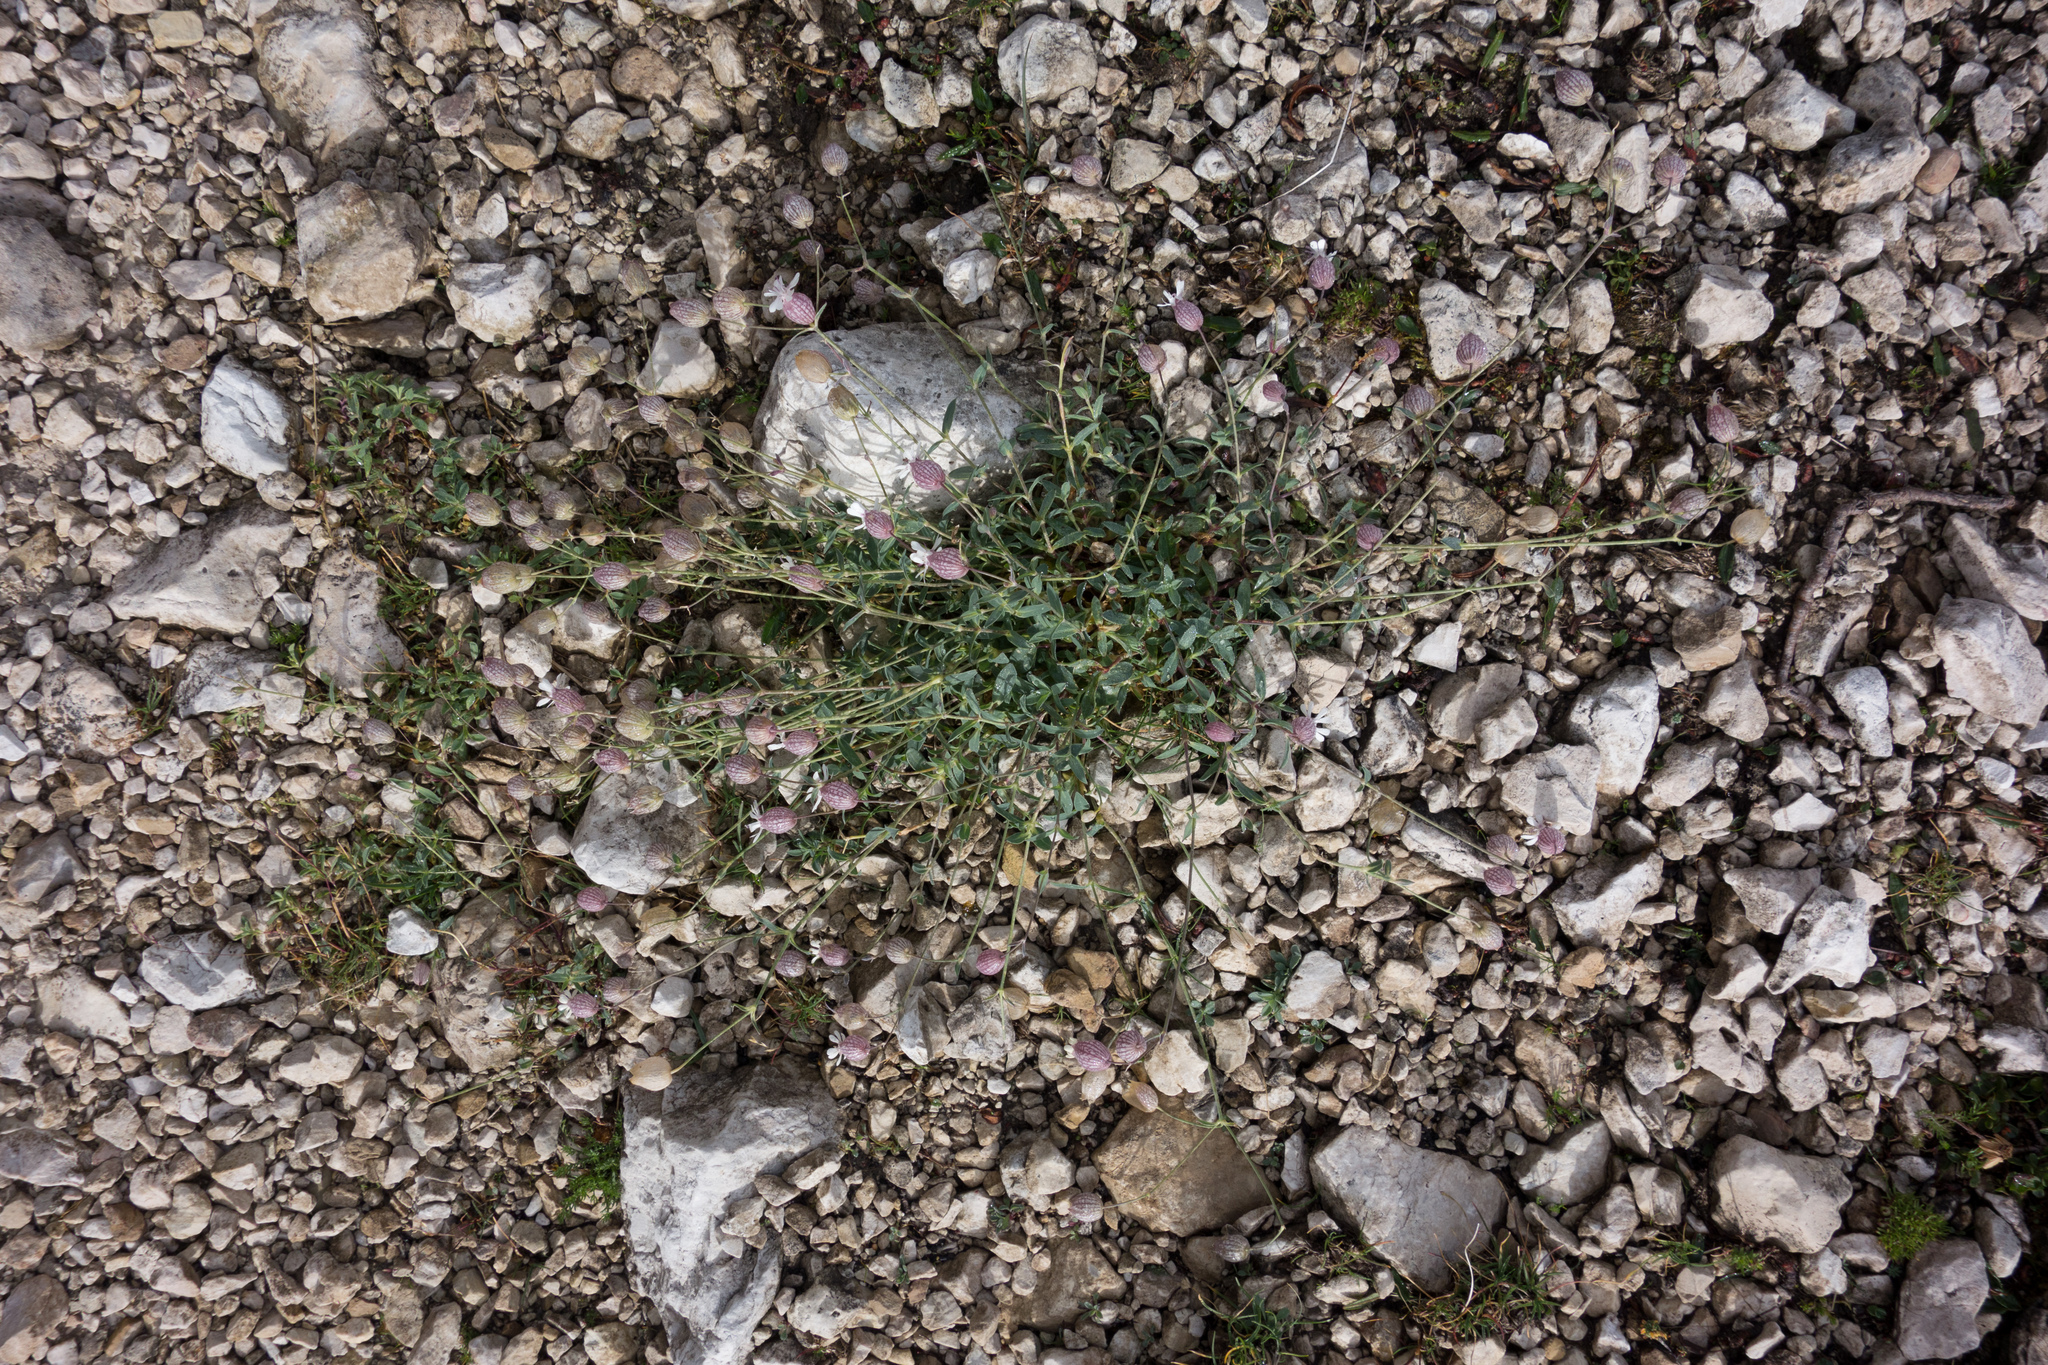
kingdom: Plantae
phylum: Tracheophyta
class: Magnoliopsida
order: Caryophyllales
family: Caryophyllaceae
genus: Silene
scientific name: Silene vulgaris
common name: Bladder campion
